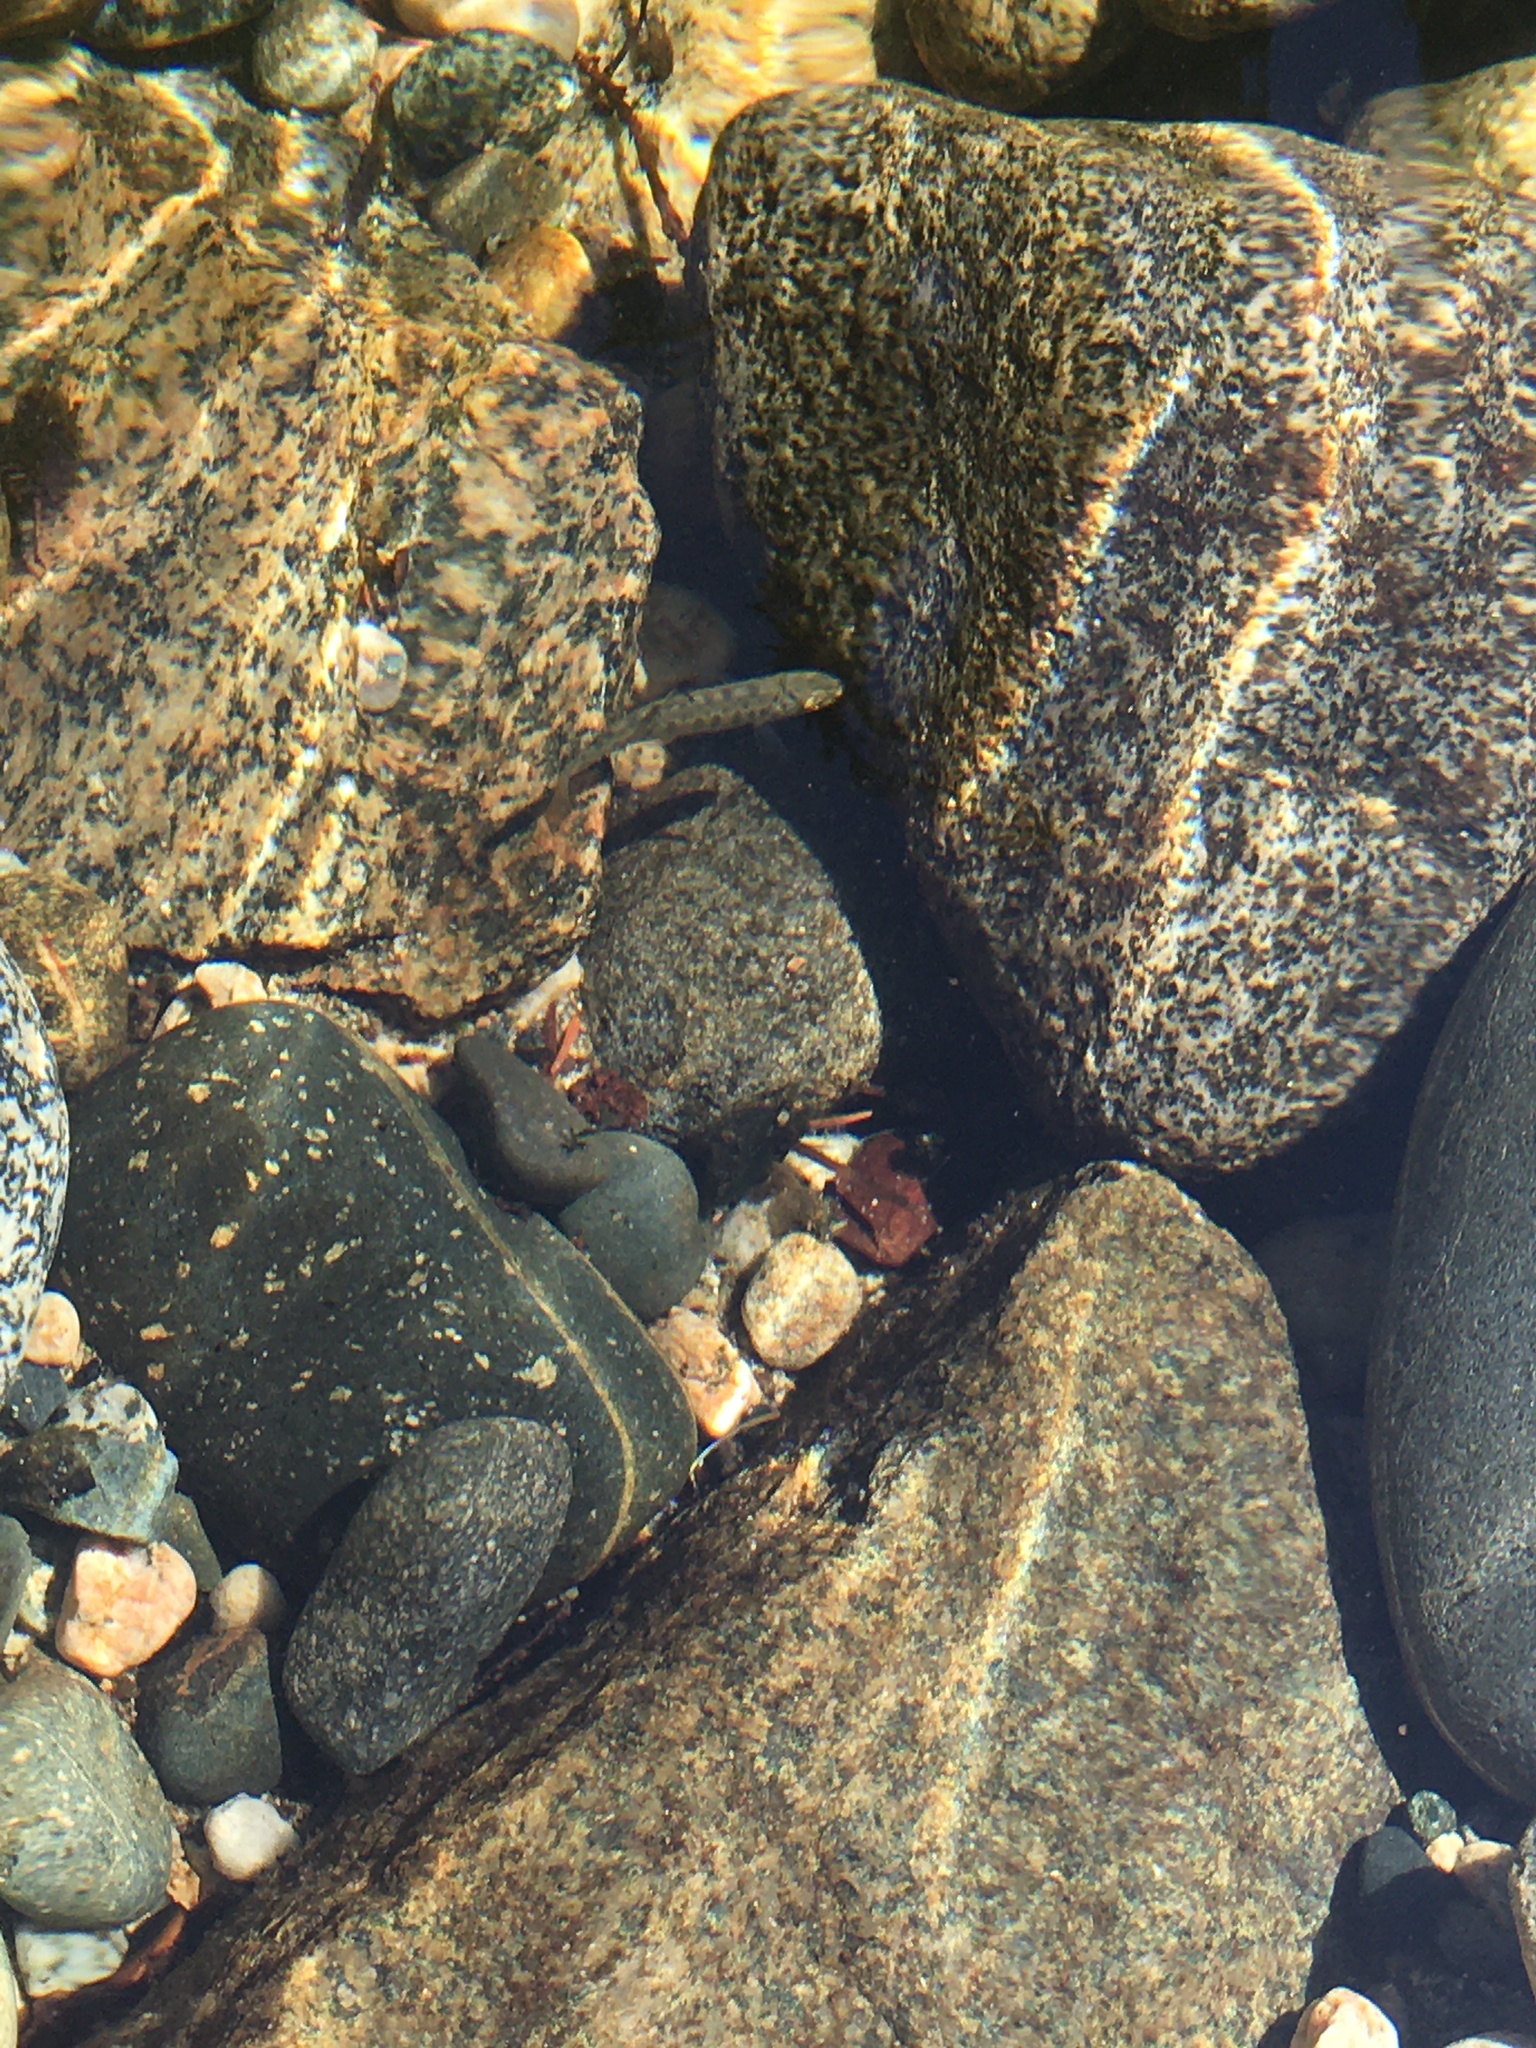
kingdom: Animalia
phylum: Chordata
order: Salmoniformes
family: Salmonidae
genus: Oncorhynchus
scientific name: Oncorhynchus mykiss
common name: Rainbow trout
